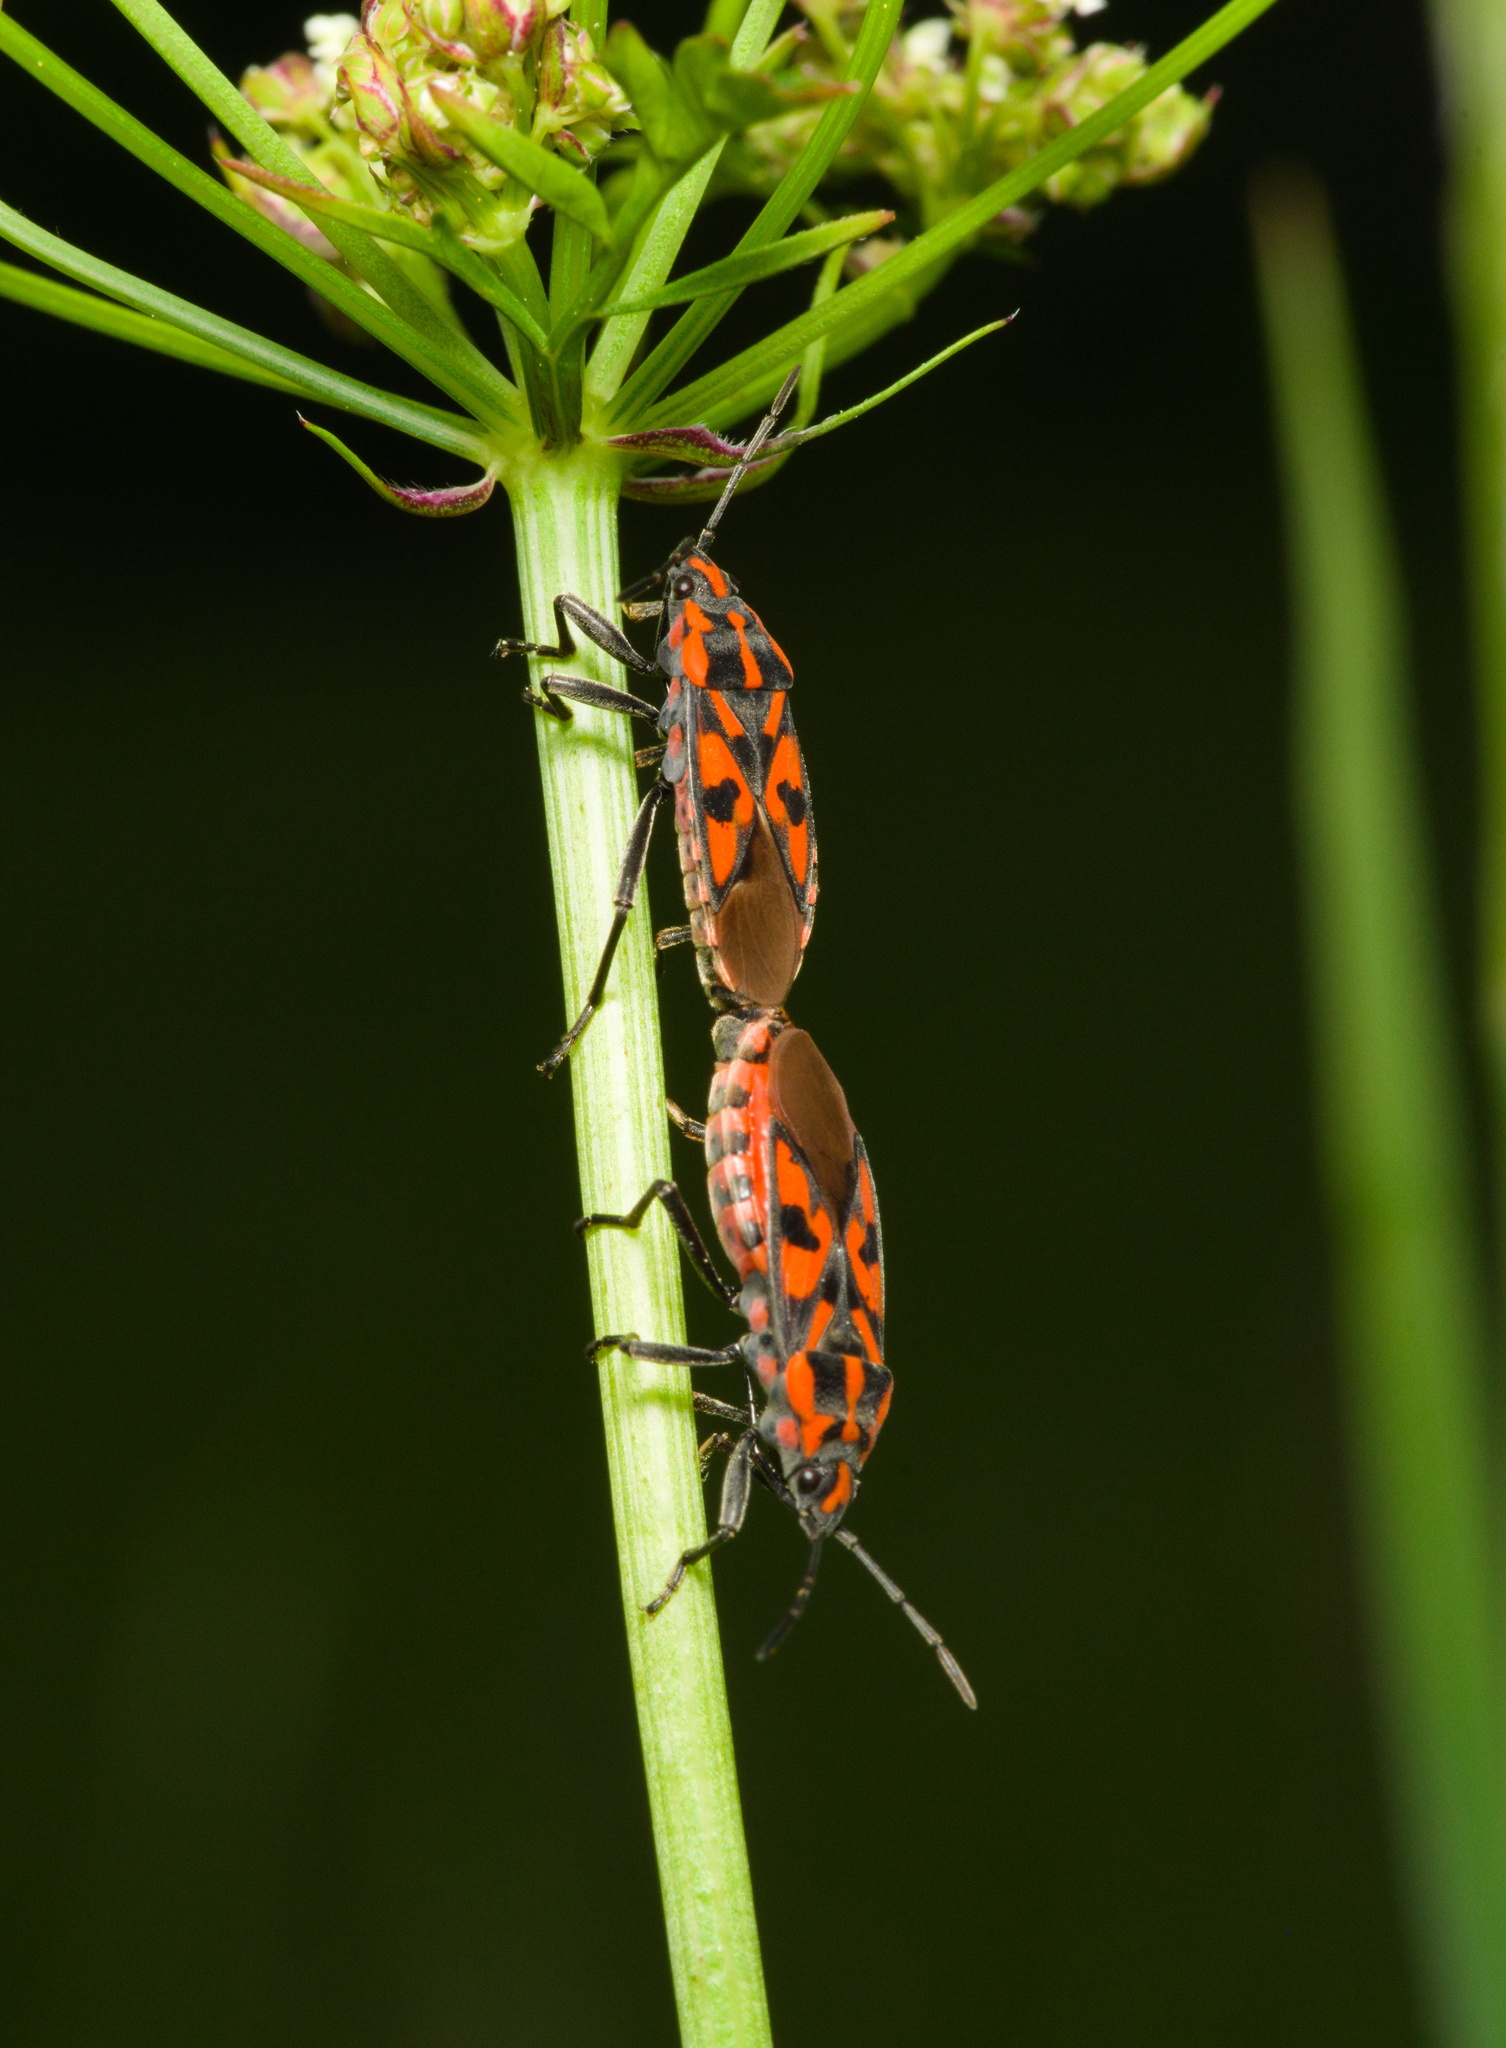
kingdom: Animalia
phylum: Arthropoda
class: Insecta
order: Hemiptera
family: Lygaeidae
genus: Spilostethus
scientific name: Spilostethus saxatilis
